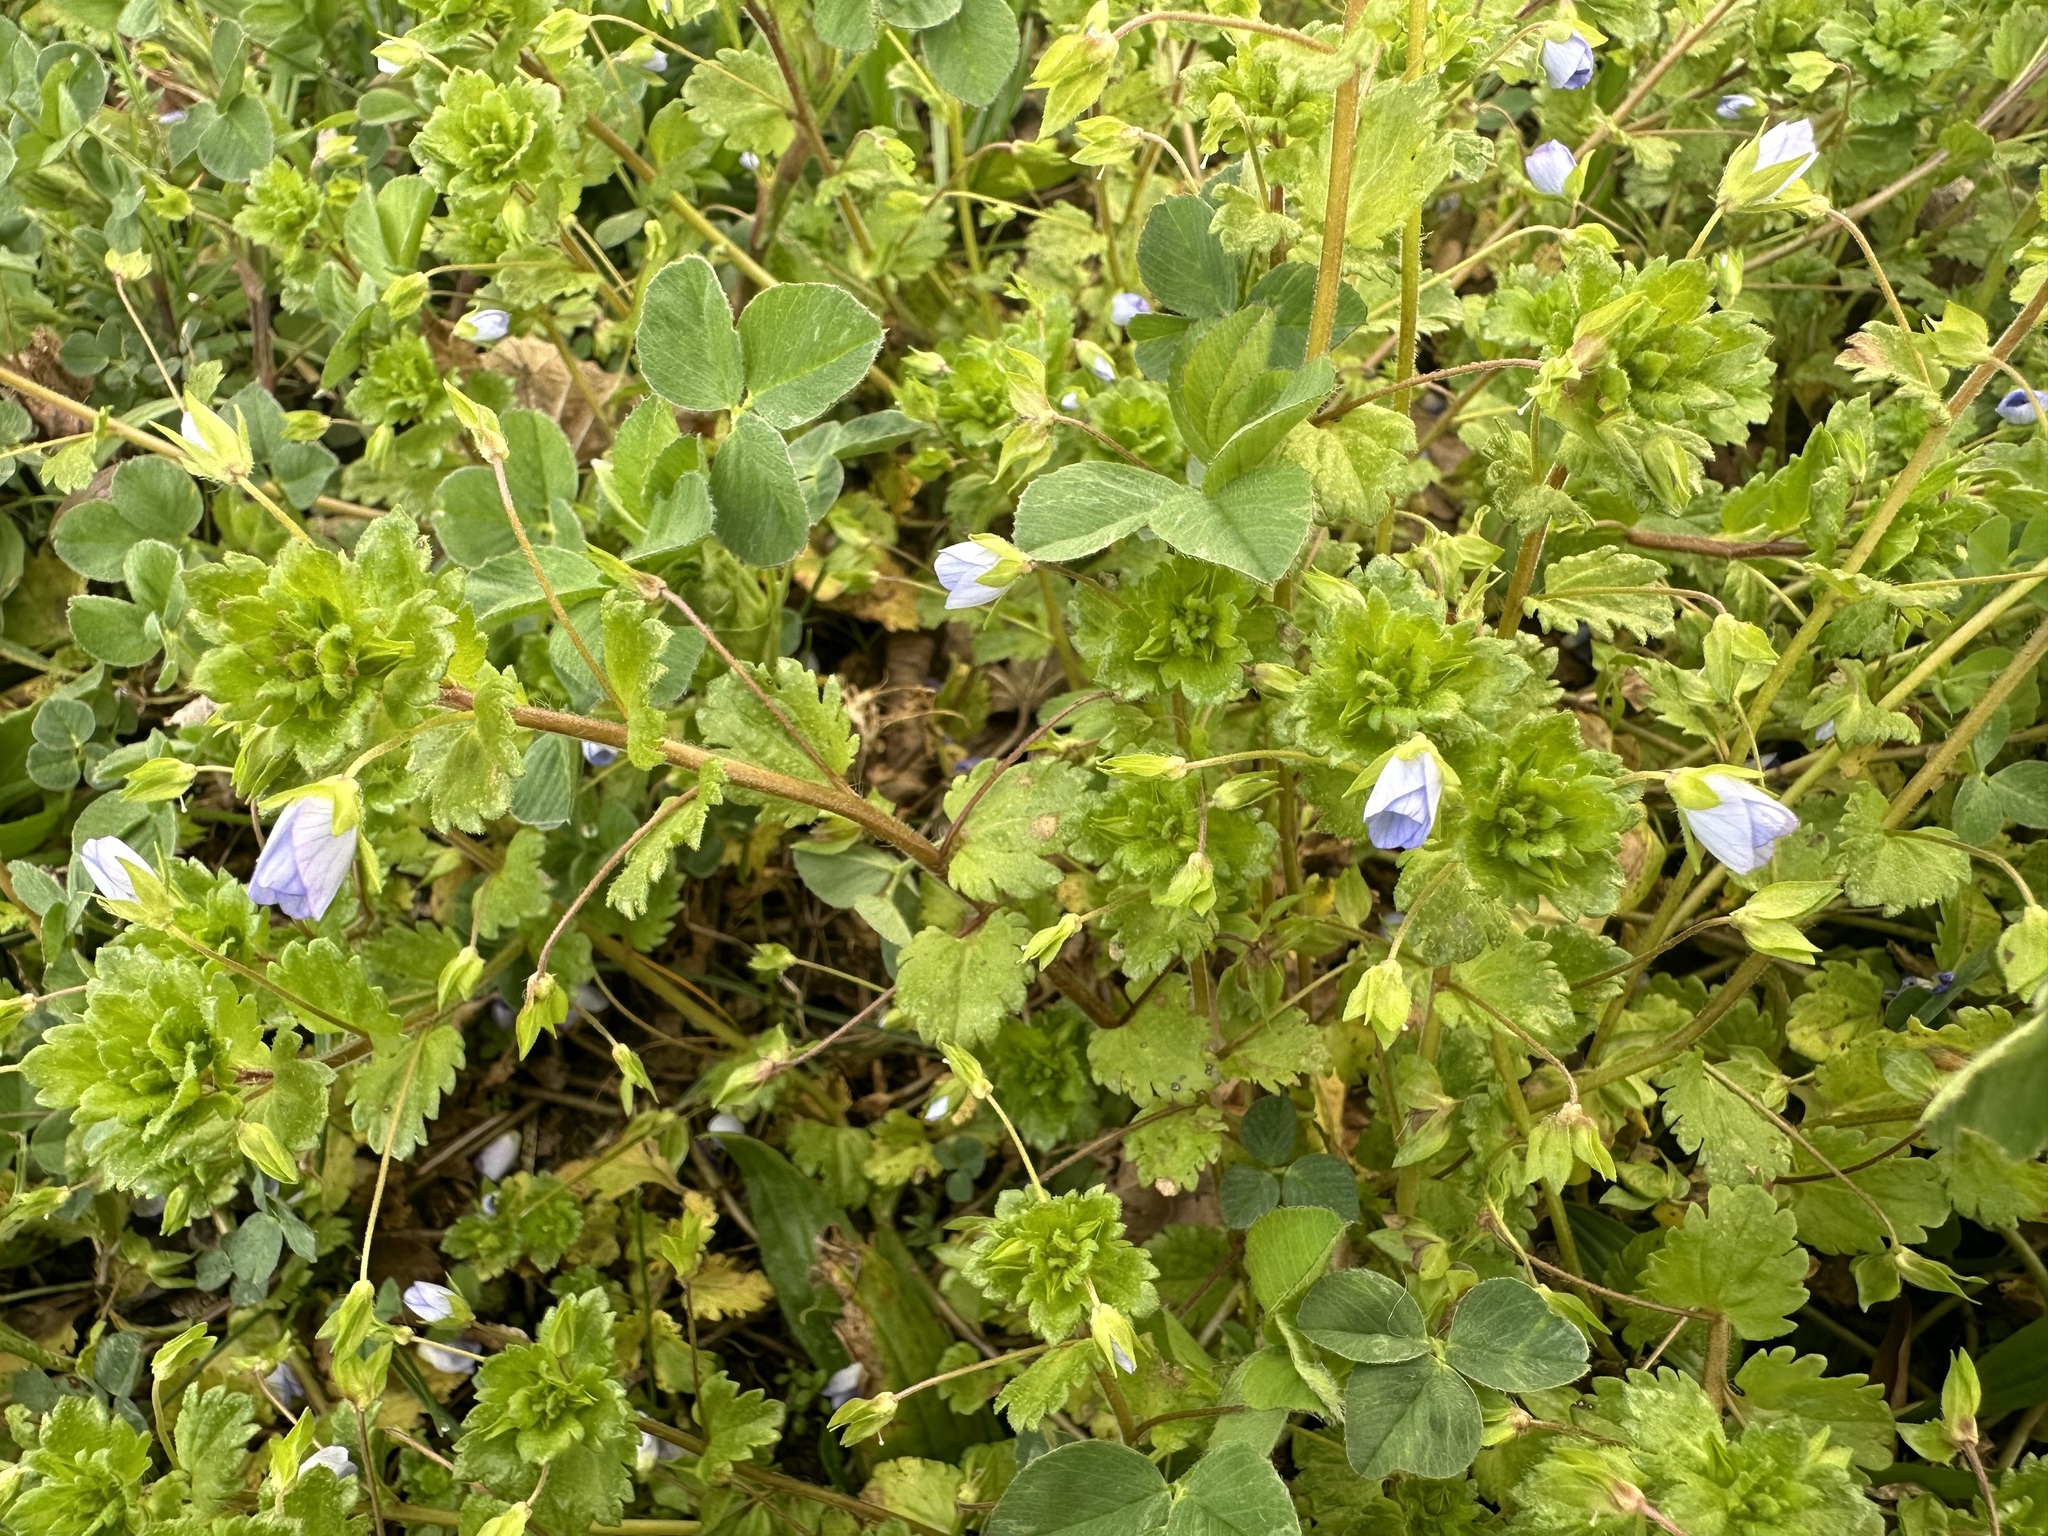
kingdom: Plantae
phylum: Tracheophyta
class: Magnoliopsida
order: Lamiales
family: Plantaginaceae
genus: Veronica
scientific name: Veronica persica
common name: Common field-speedwell
